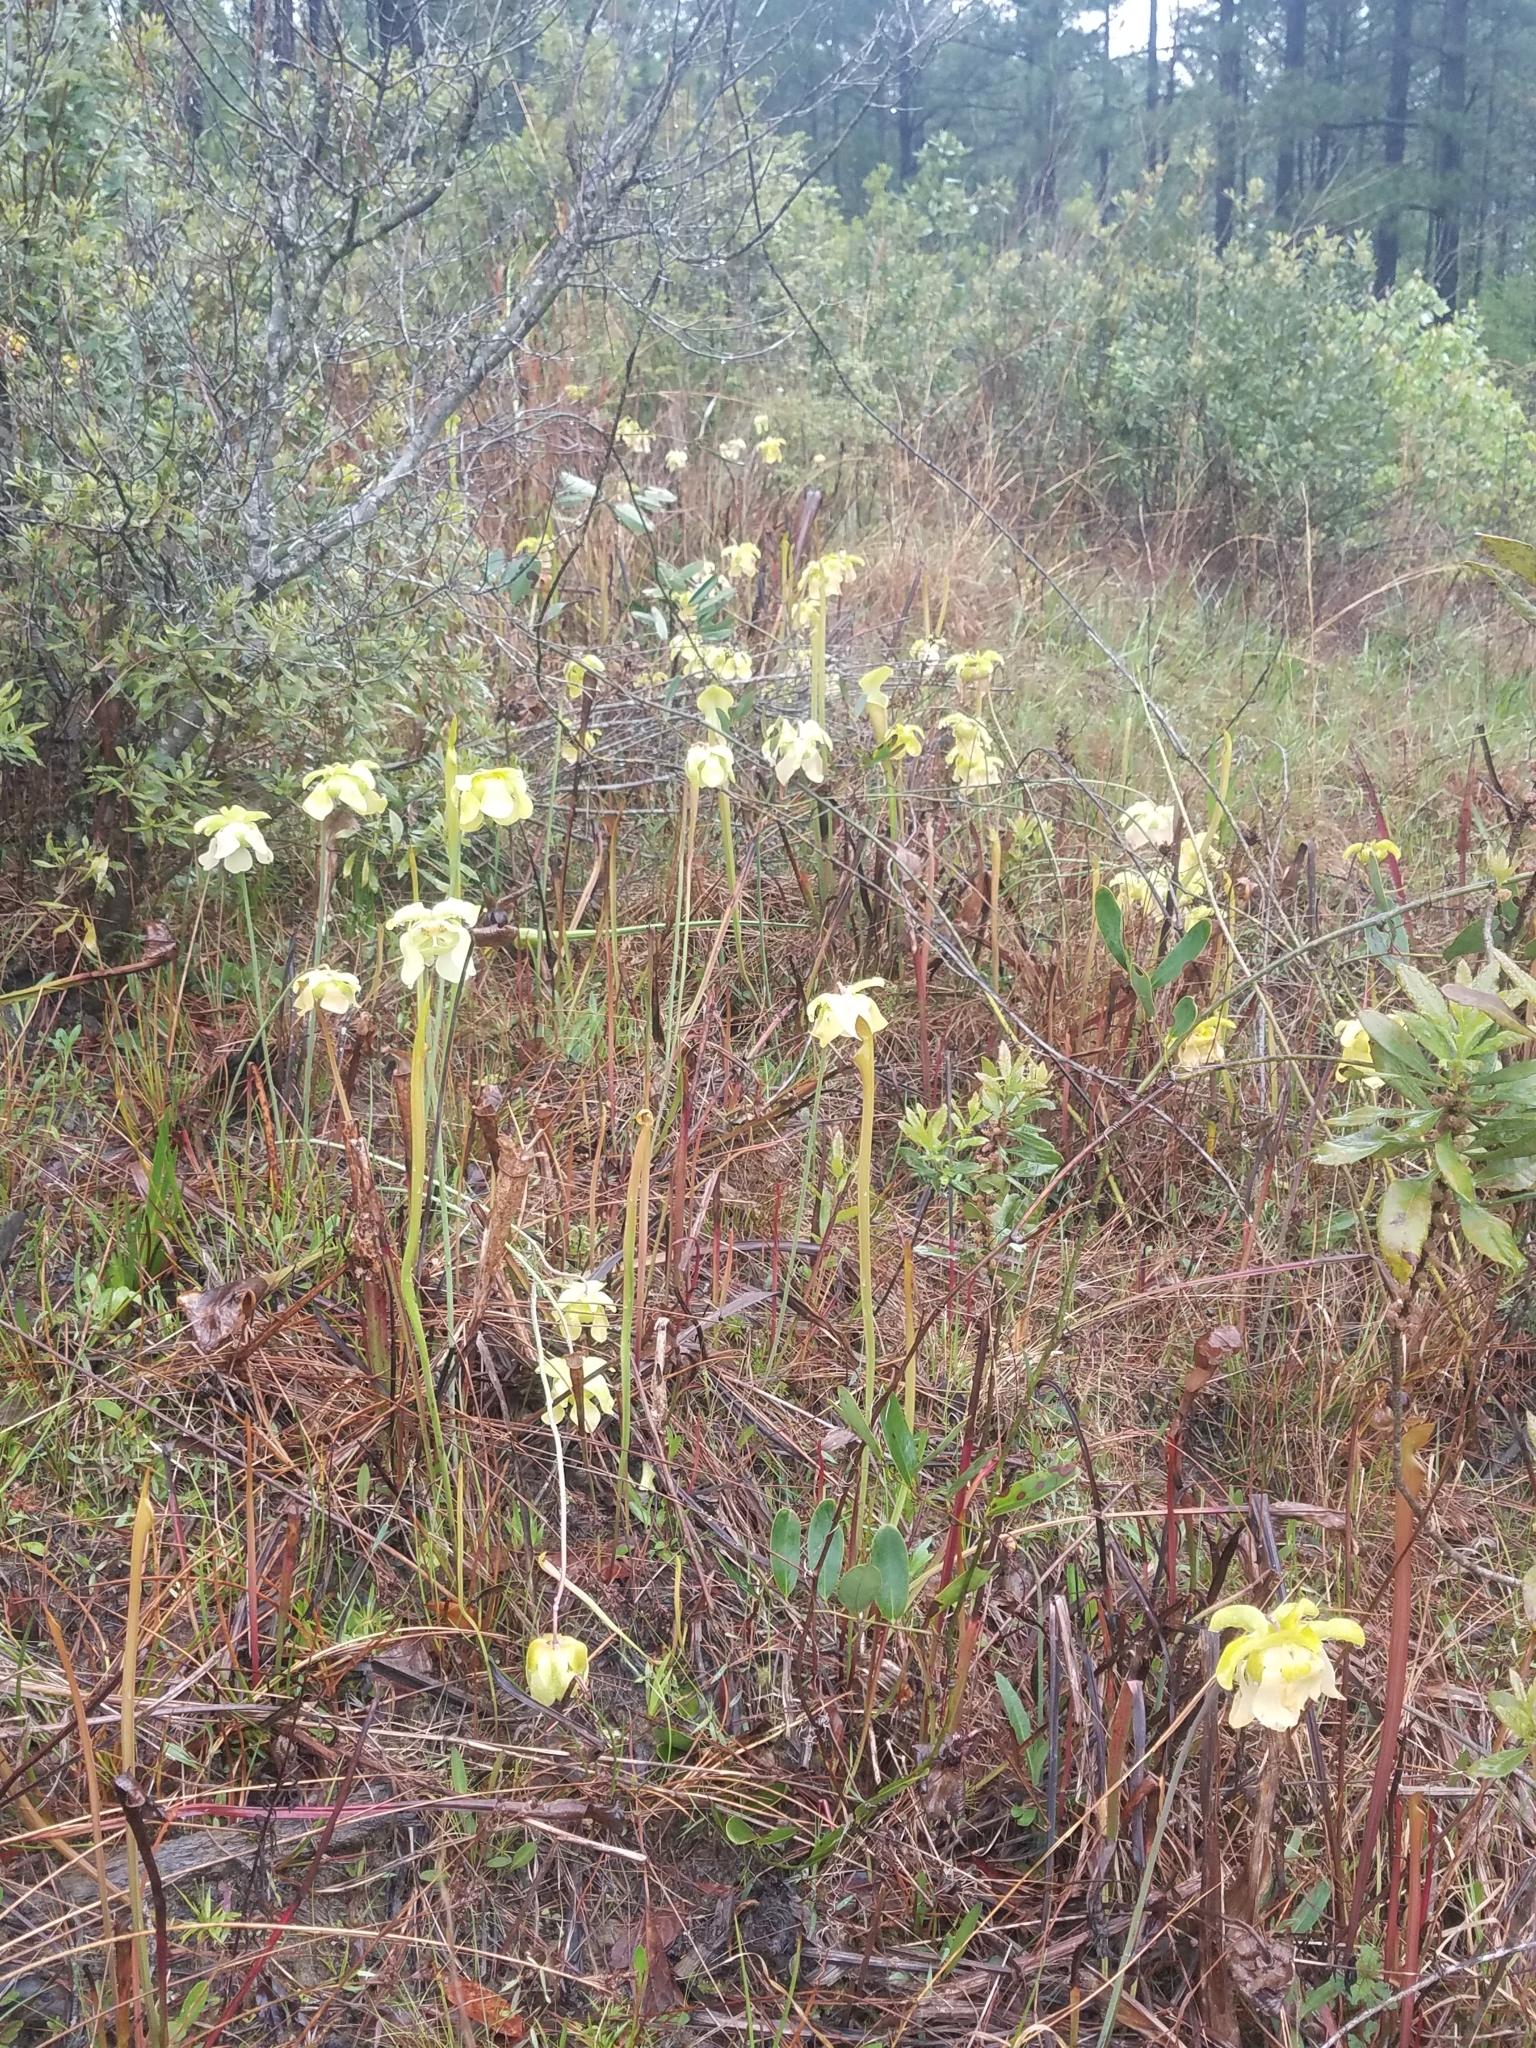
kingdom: Plantae
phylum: Tracheophyta
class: Magnoliopsida
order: Ericales
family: Sarraceniaceae
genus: Sarracenia
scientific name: Sarracenia alata
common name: Yellow trumpets
